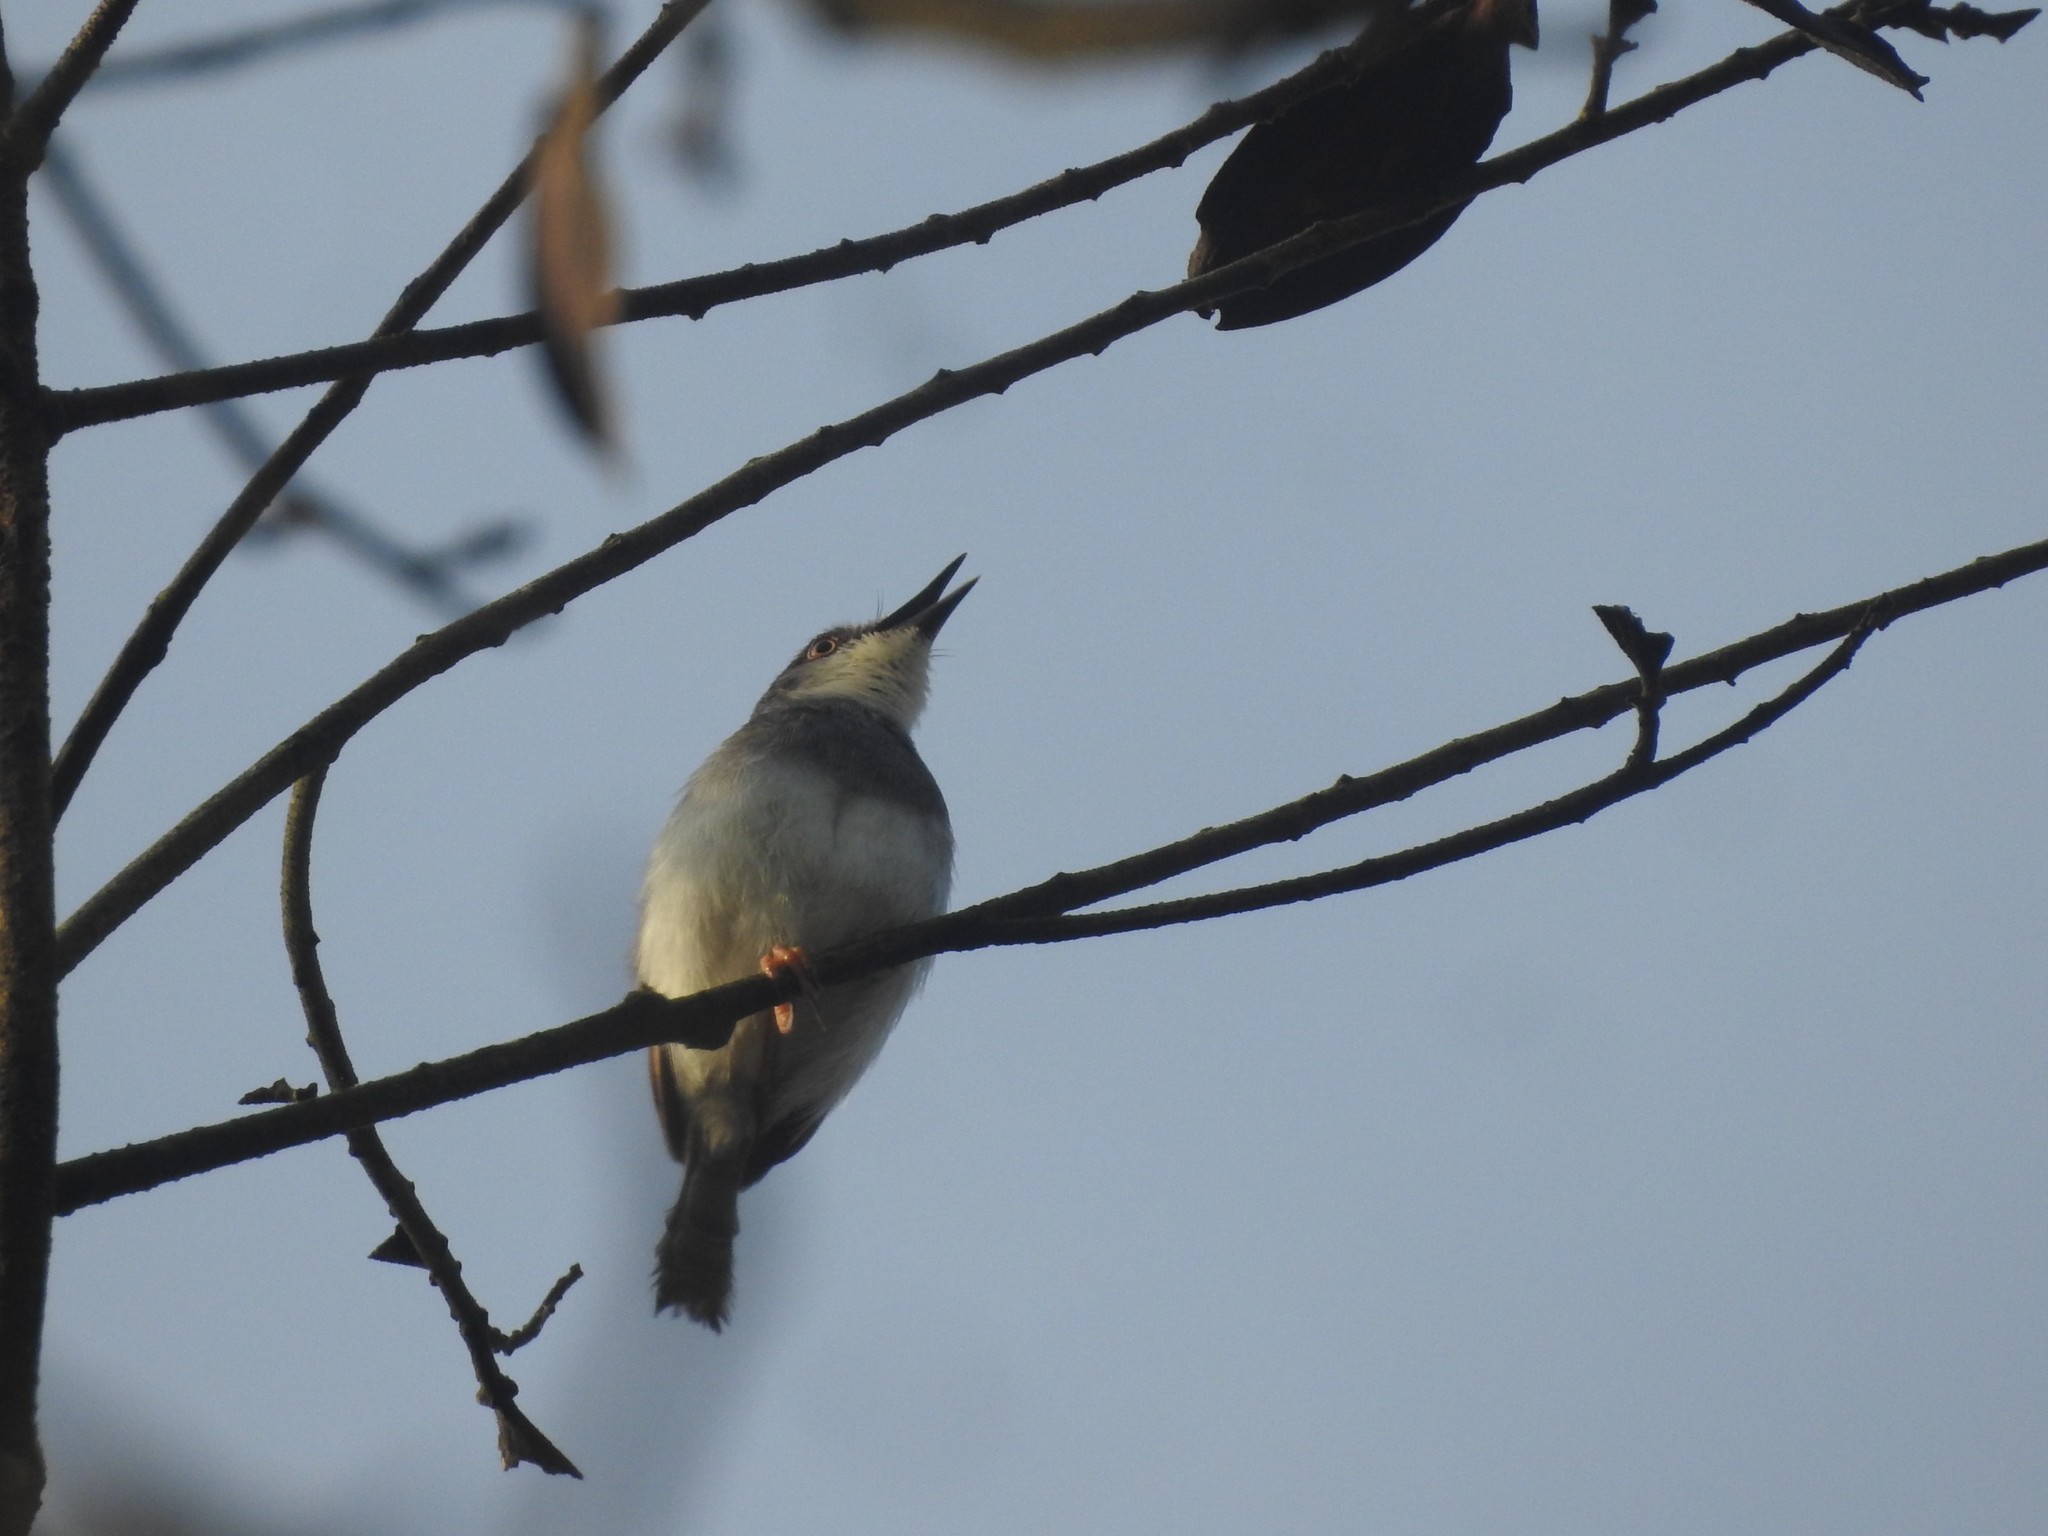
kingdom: Animalia
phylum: Chordata
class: Aves
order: Passeriformes
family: Cisticolidae
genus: Prinia
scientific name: Prinia hodgsonii
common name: Grey-breasted prinia
